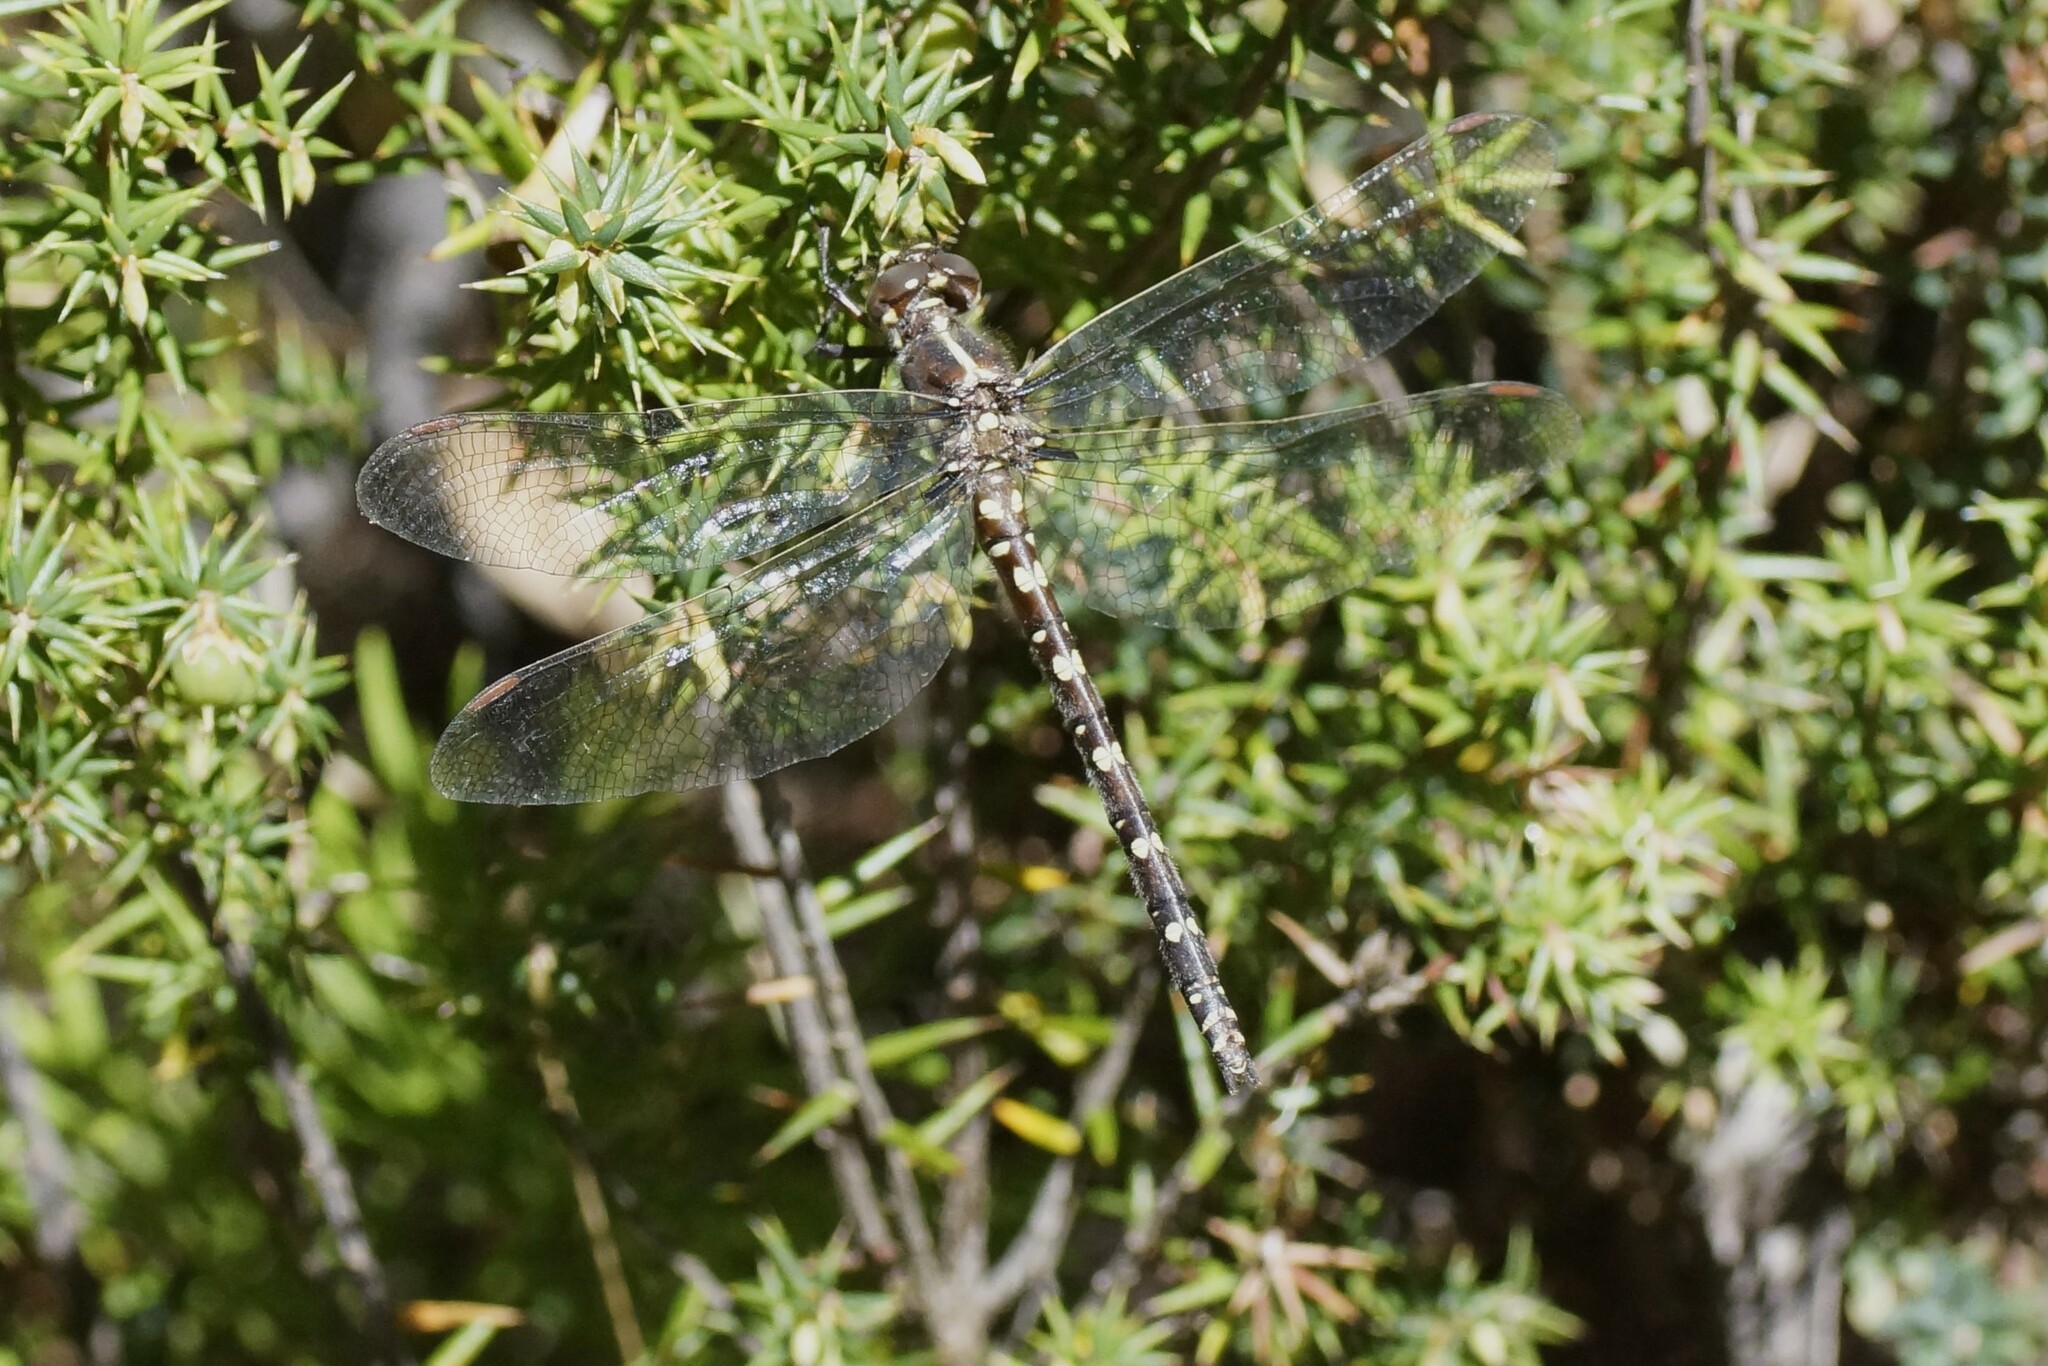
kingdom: Animalia
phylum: Arthropoda
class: Insecta
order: Odonata
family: Synthemistidae
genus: Synthemis
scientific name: Synthemis tasmanica
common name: Tasmanian swamp tigertail
